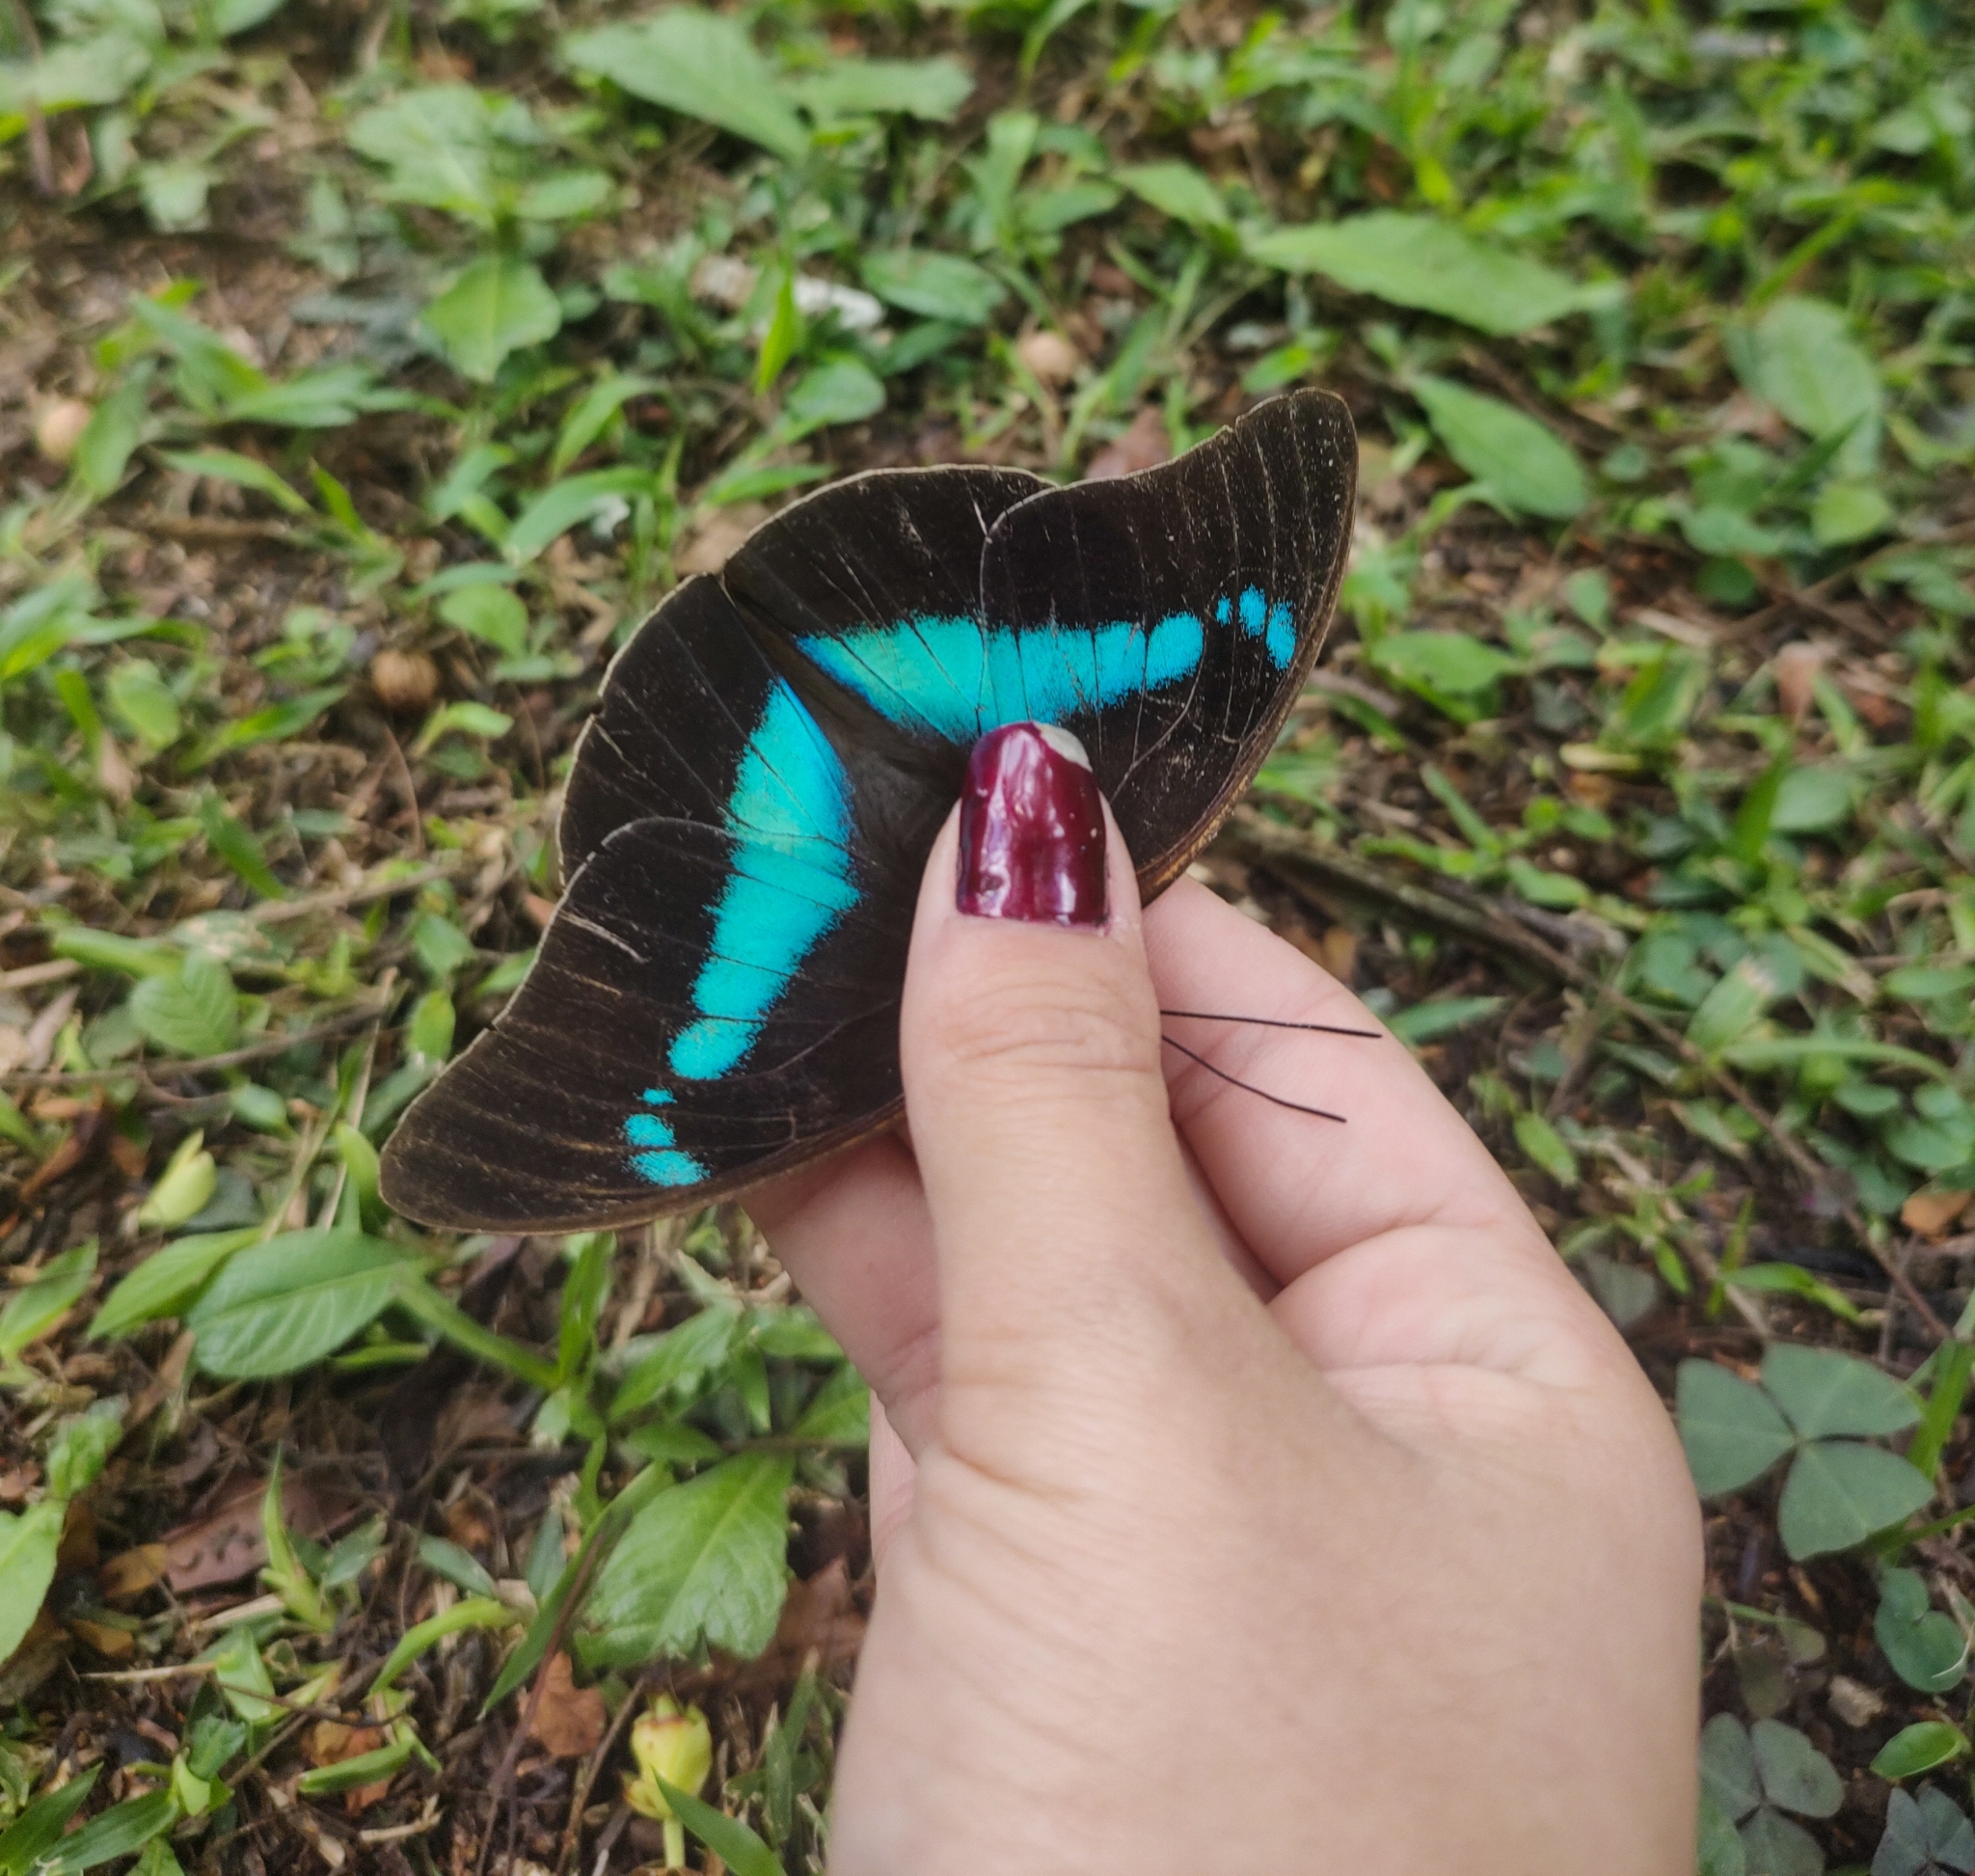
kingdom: Animalia
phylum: Arthropoda
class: Insecta
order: Lepidoptera
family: Nymphalidae
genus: Prepona
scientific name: Prepona Archaeoprepona chalciope
